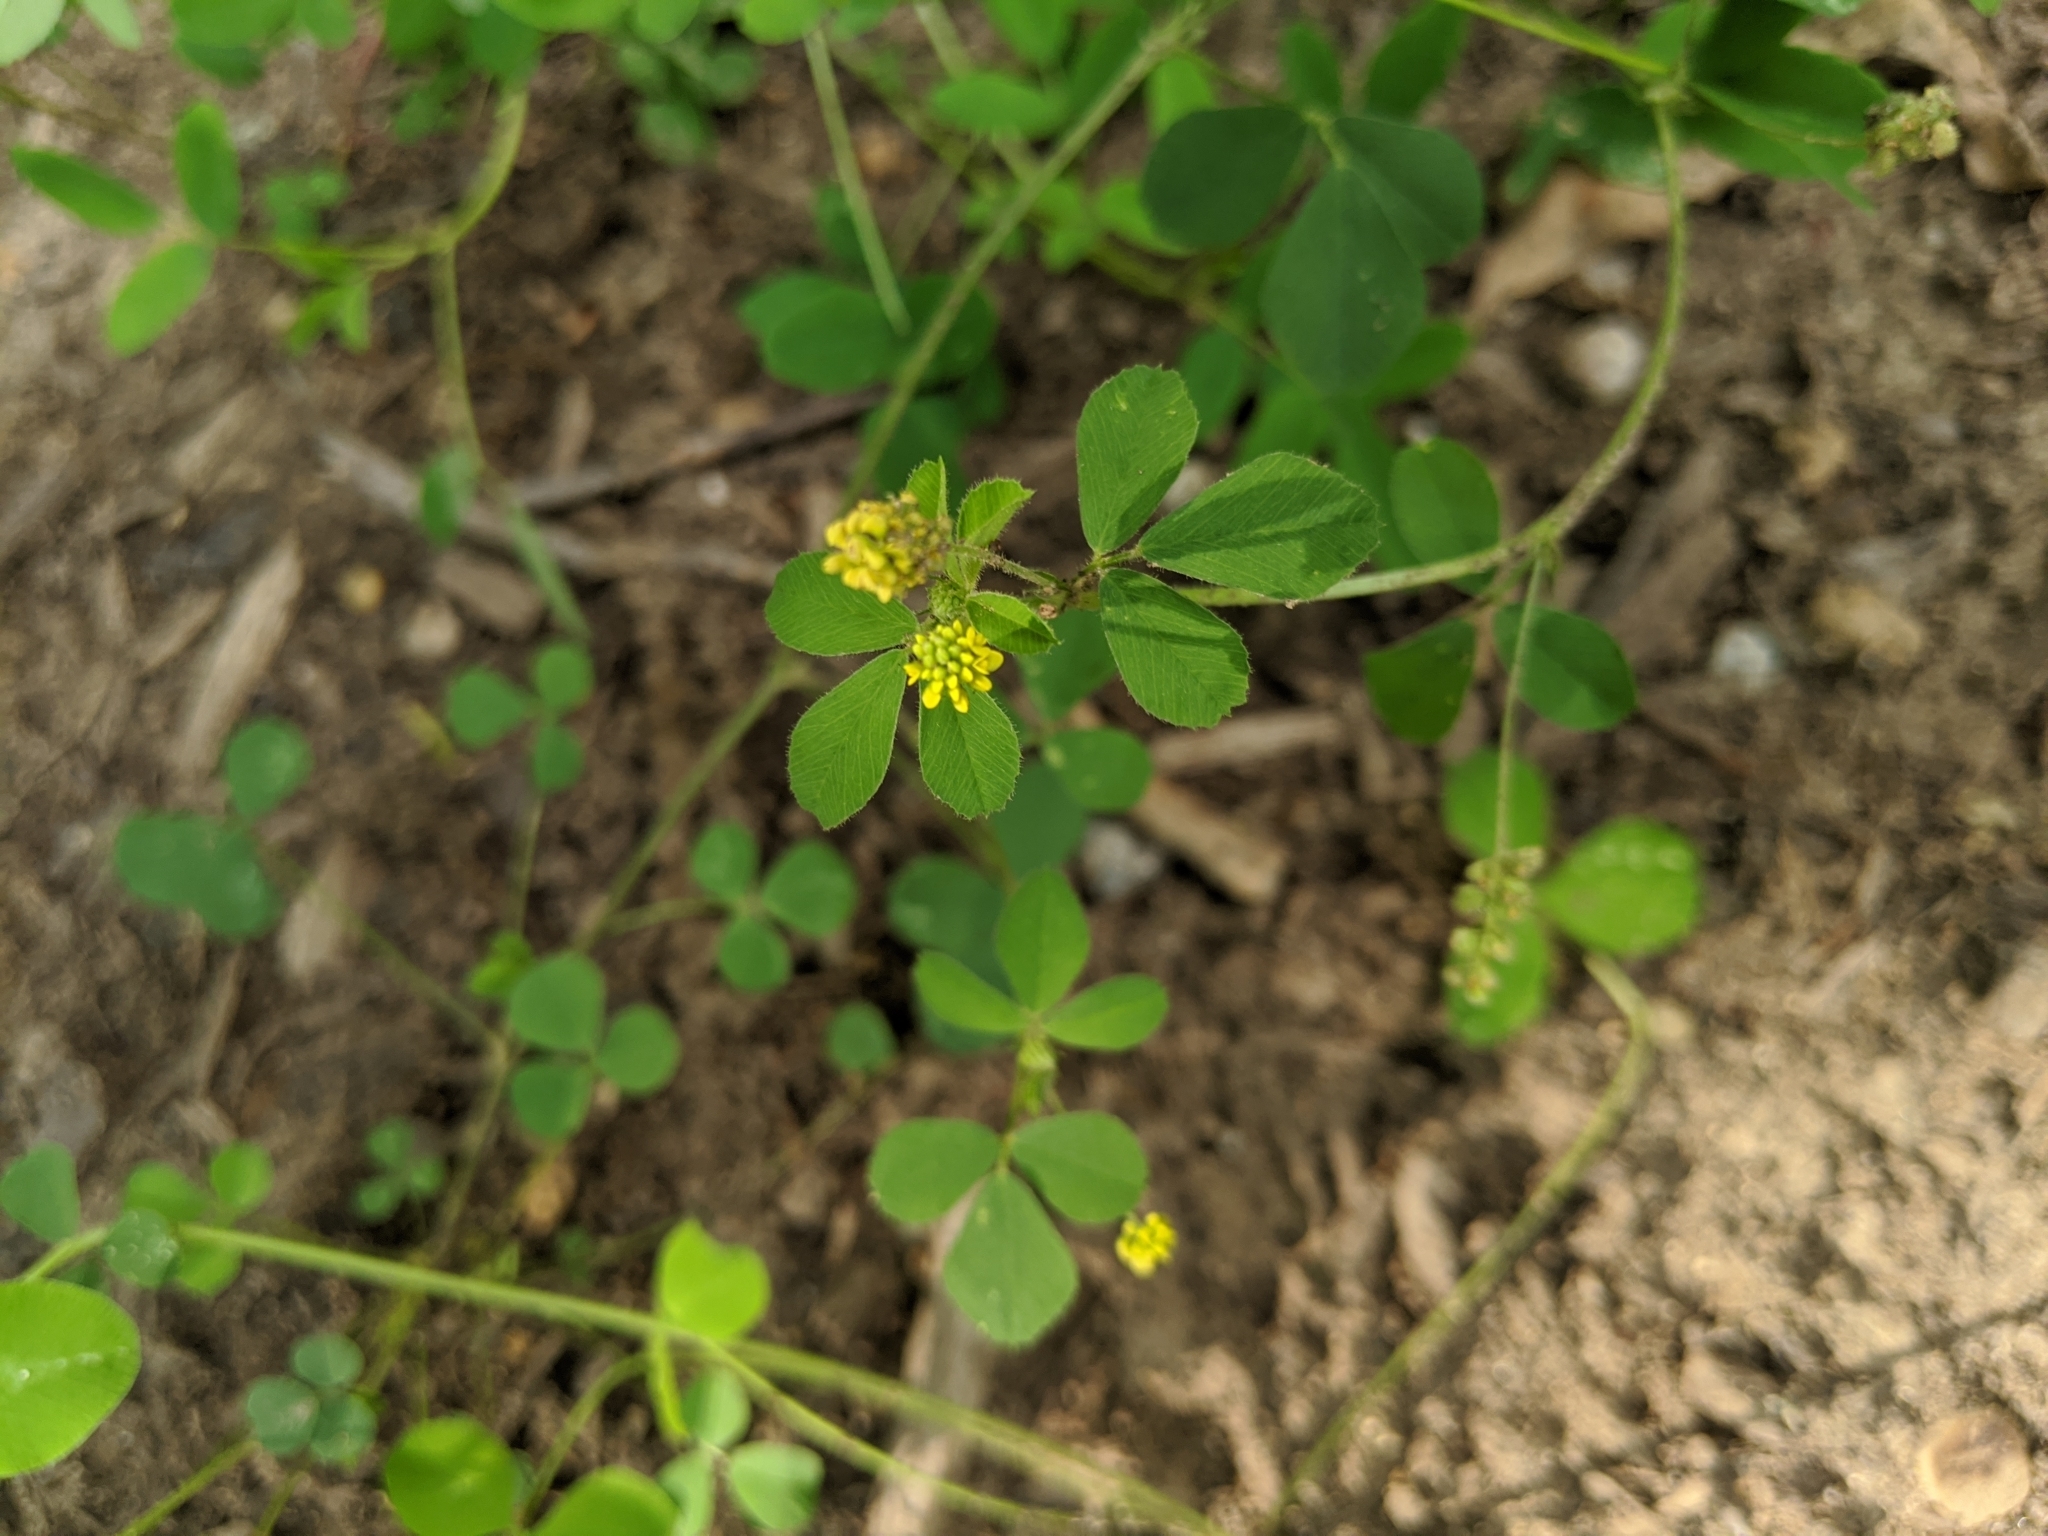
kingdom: Plantae
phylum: Tracheophyta
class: Magnoliopsida
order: Fabales
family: Fabaceae
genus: Medicago
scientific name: Medicago lupulina
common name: Black medick
